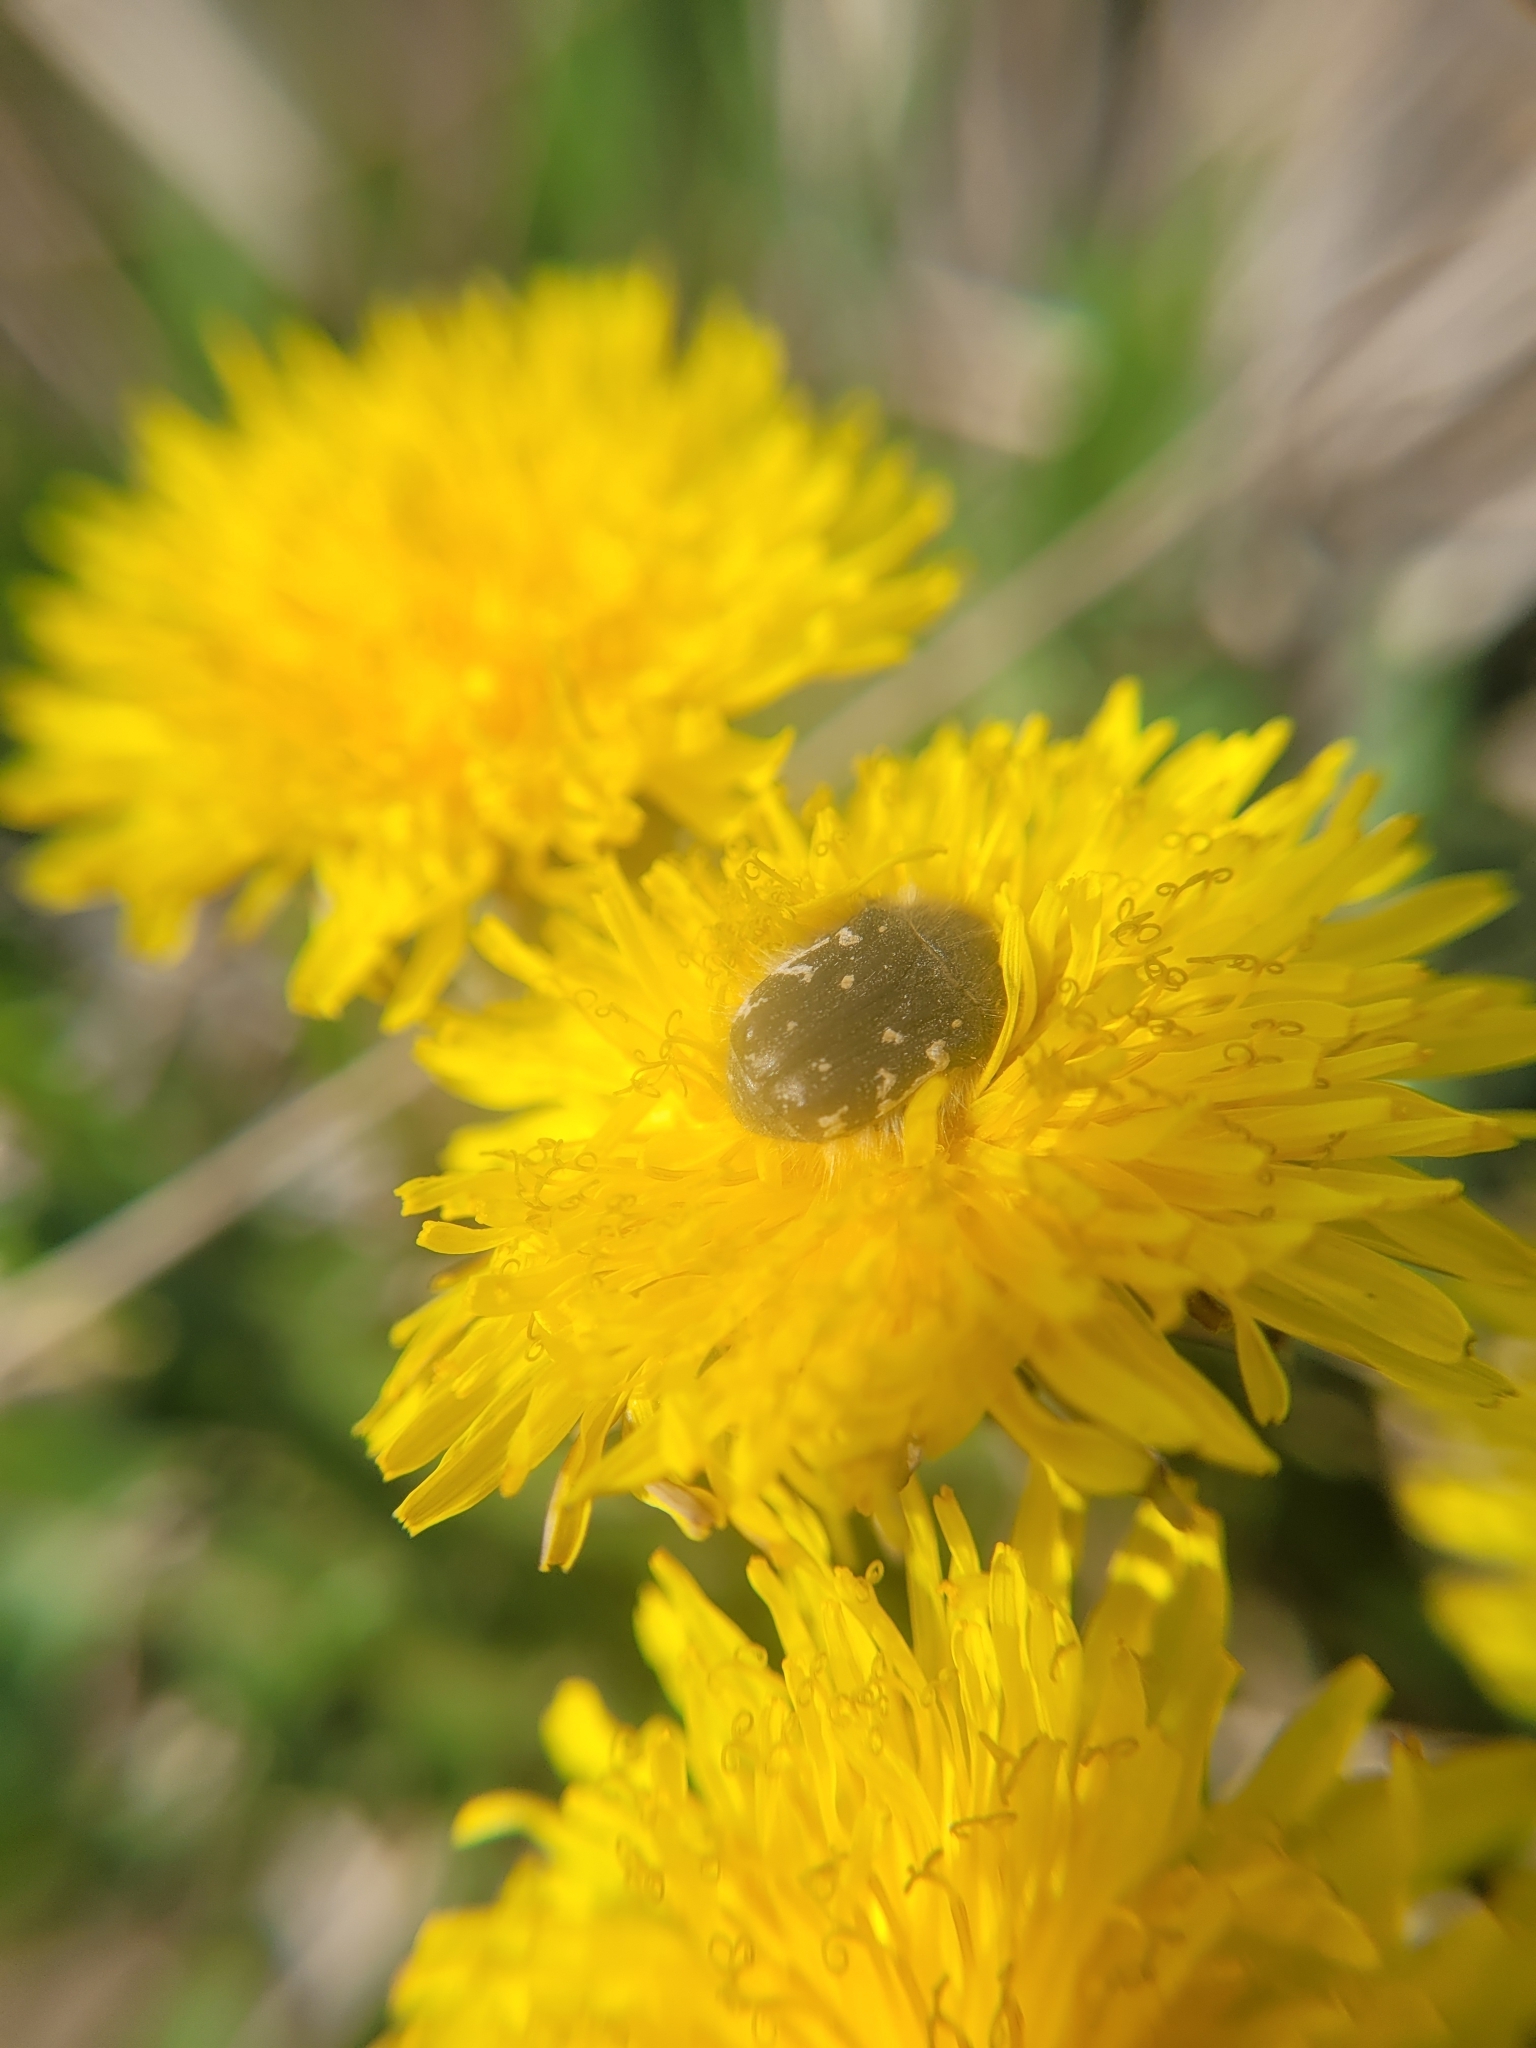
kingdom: Animalia
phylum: Arthropoda
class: Insecta
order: Coleoptera
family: Scarabaeidae
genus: Tropinota
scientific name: Tropinota hirta
